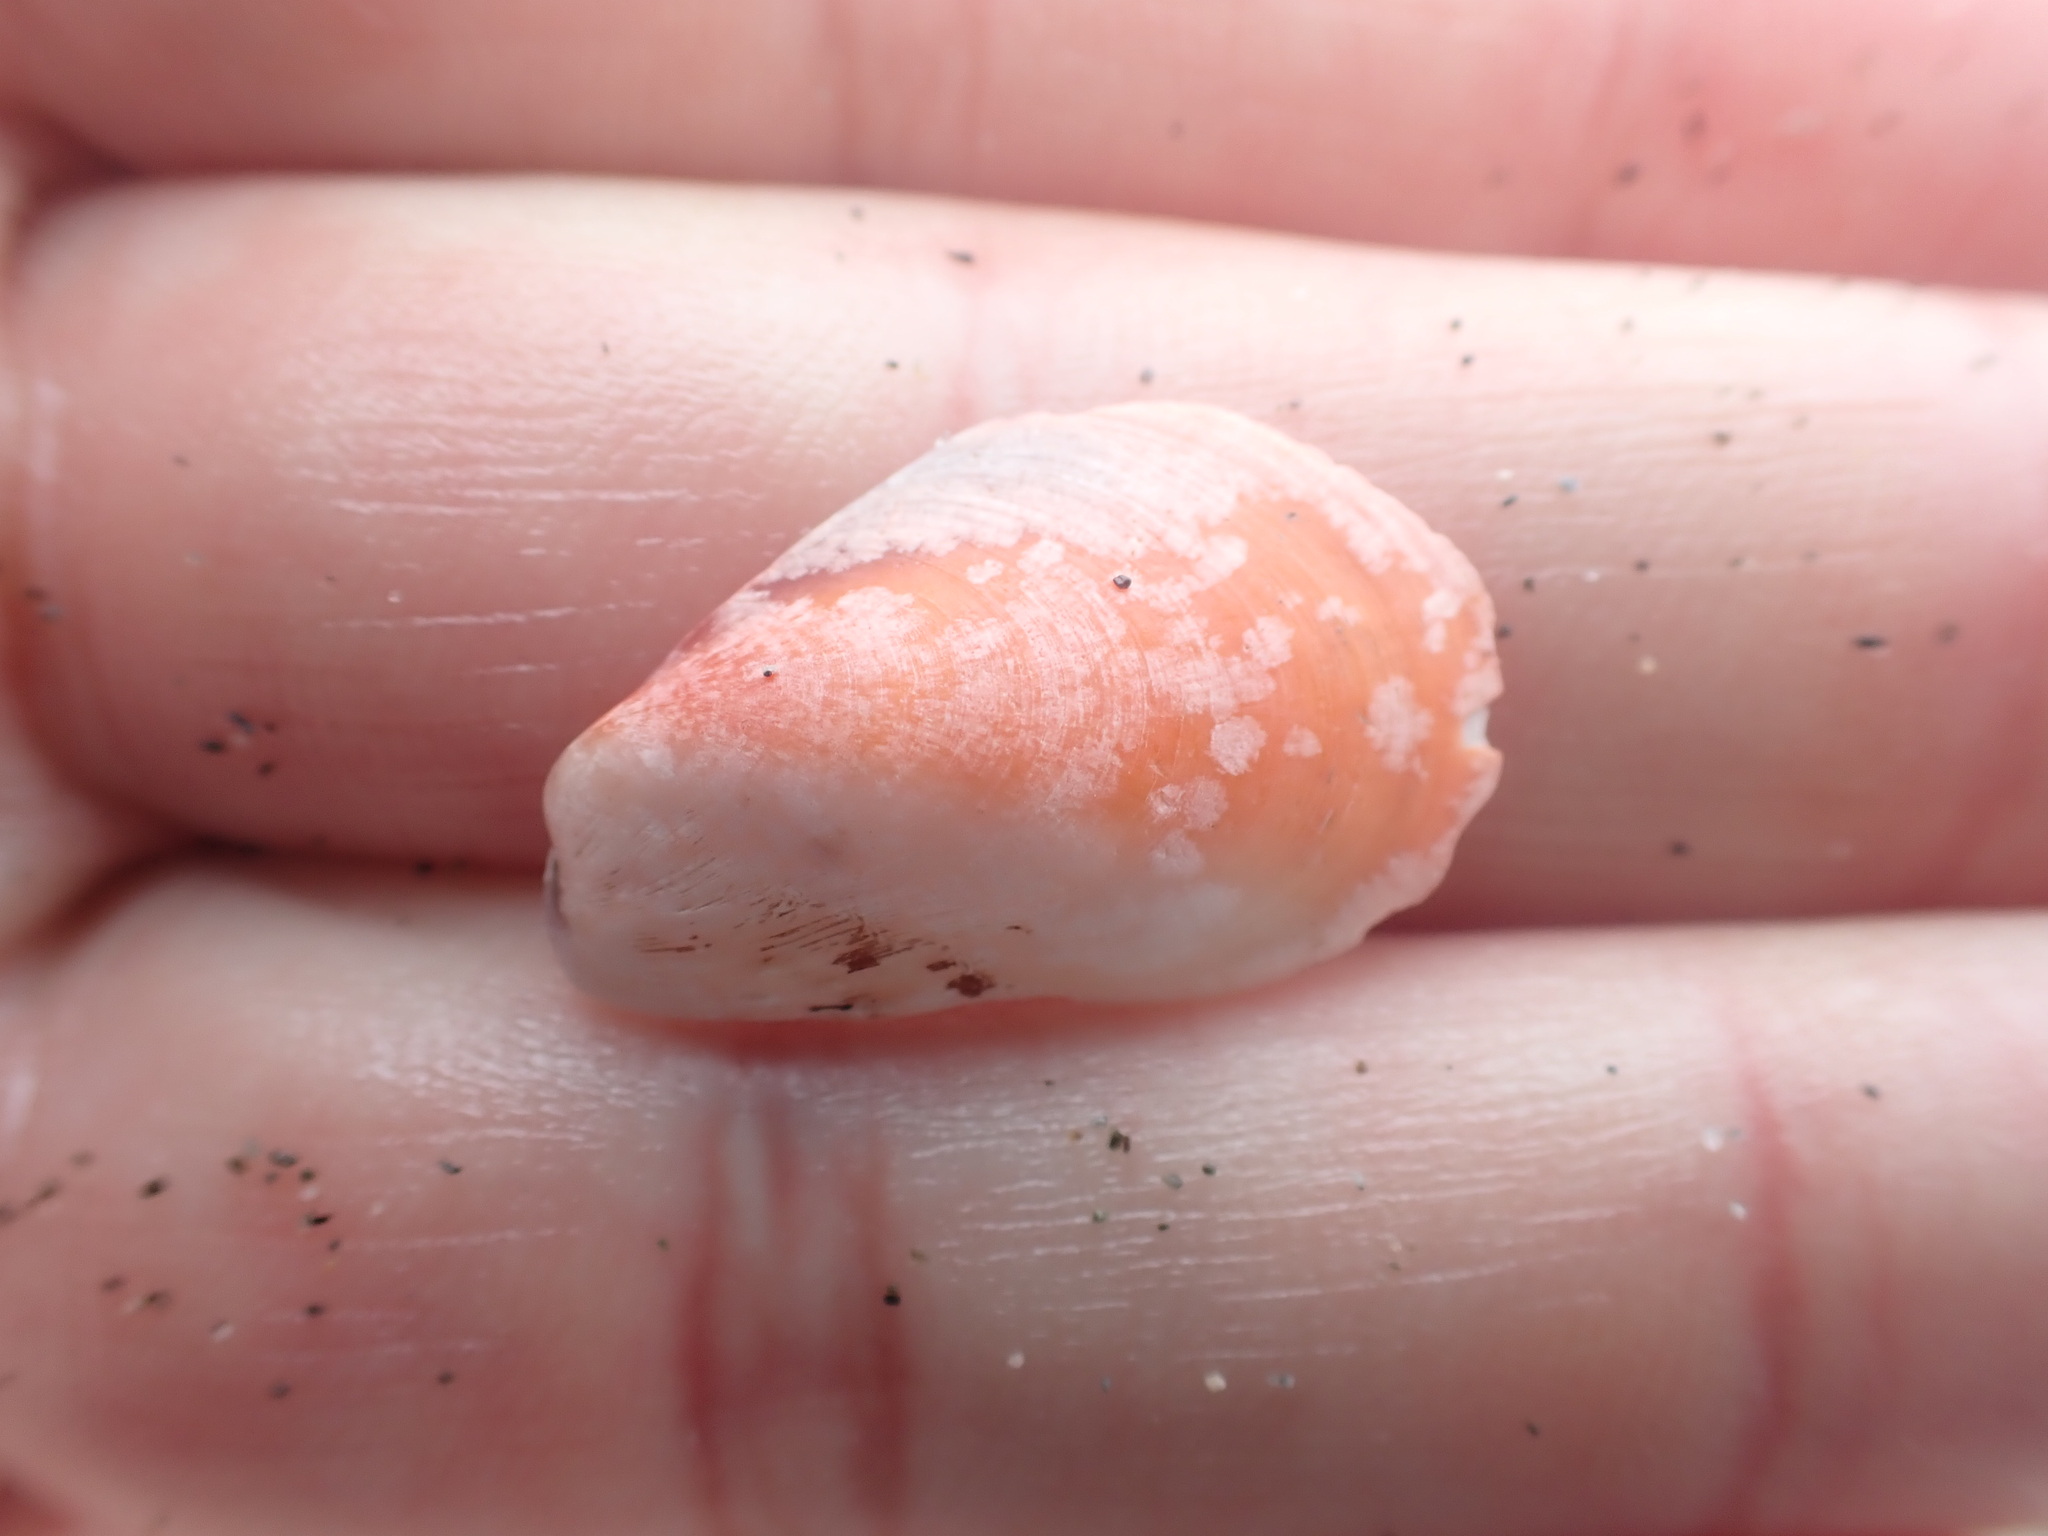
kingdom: Animalia
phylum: Mollusca
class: Bivalvia
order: Mytilida
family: Mytilidae
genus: Modiolus
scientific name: Modiolus areolatus
